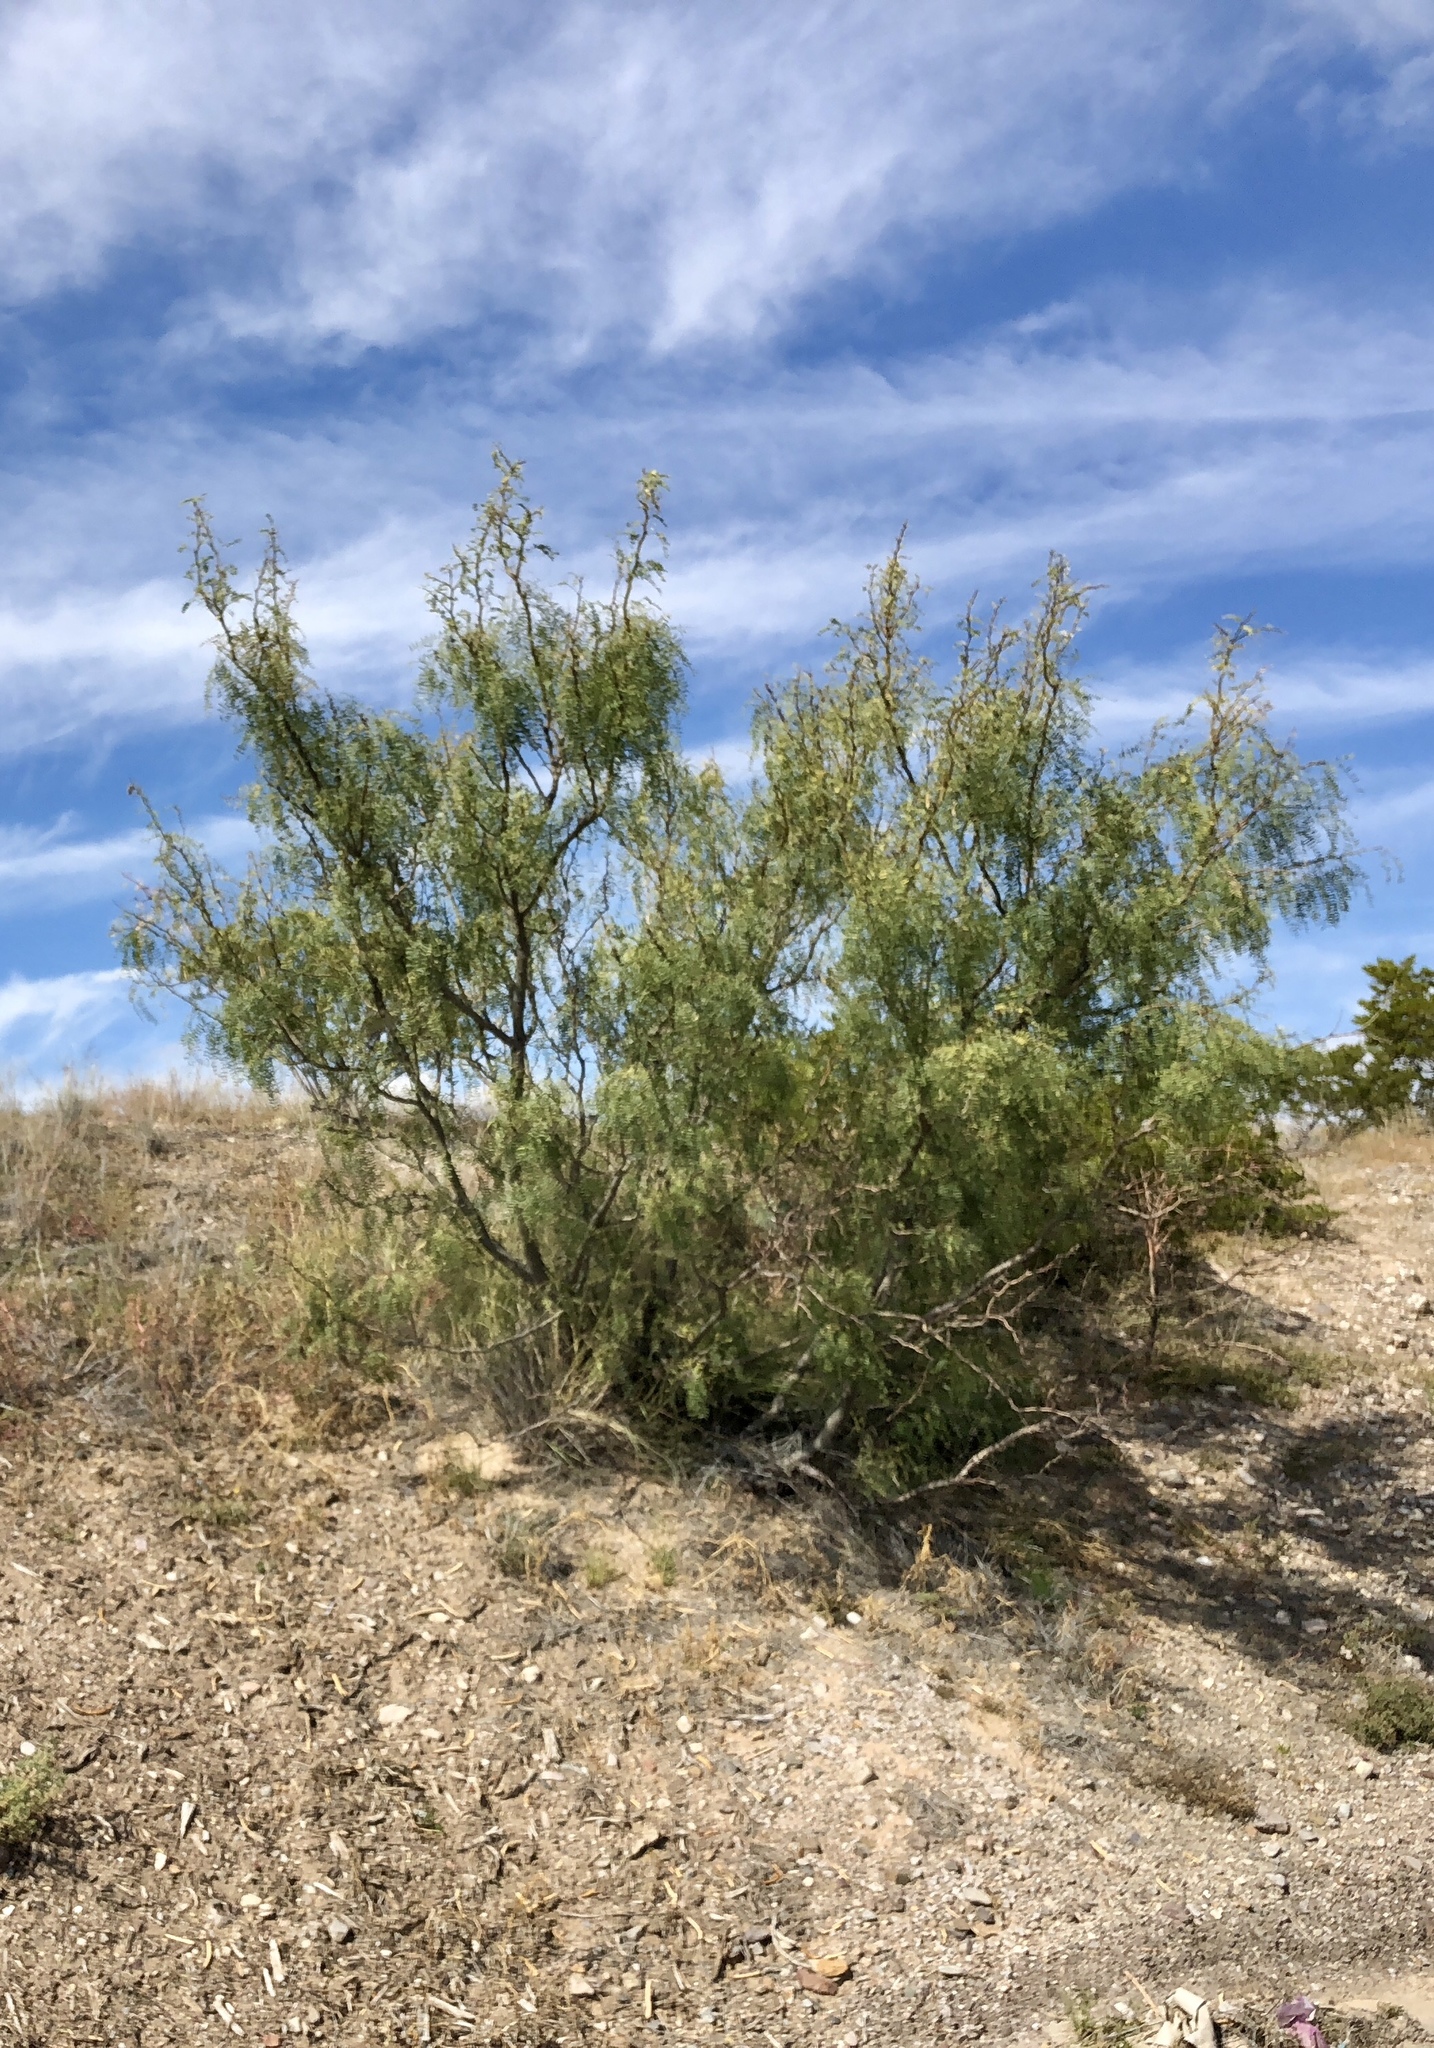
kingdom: Plantae
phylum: Tracheophyta
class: Magnoliopsida
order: Fabales
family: Fabaceae
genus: Prosopis
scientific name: Prosopis glandulosa
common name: Honey mesquite
